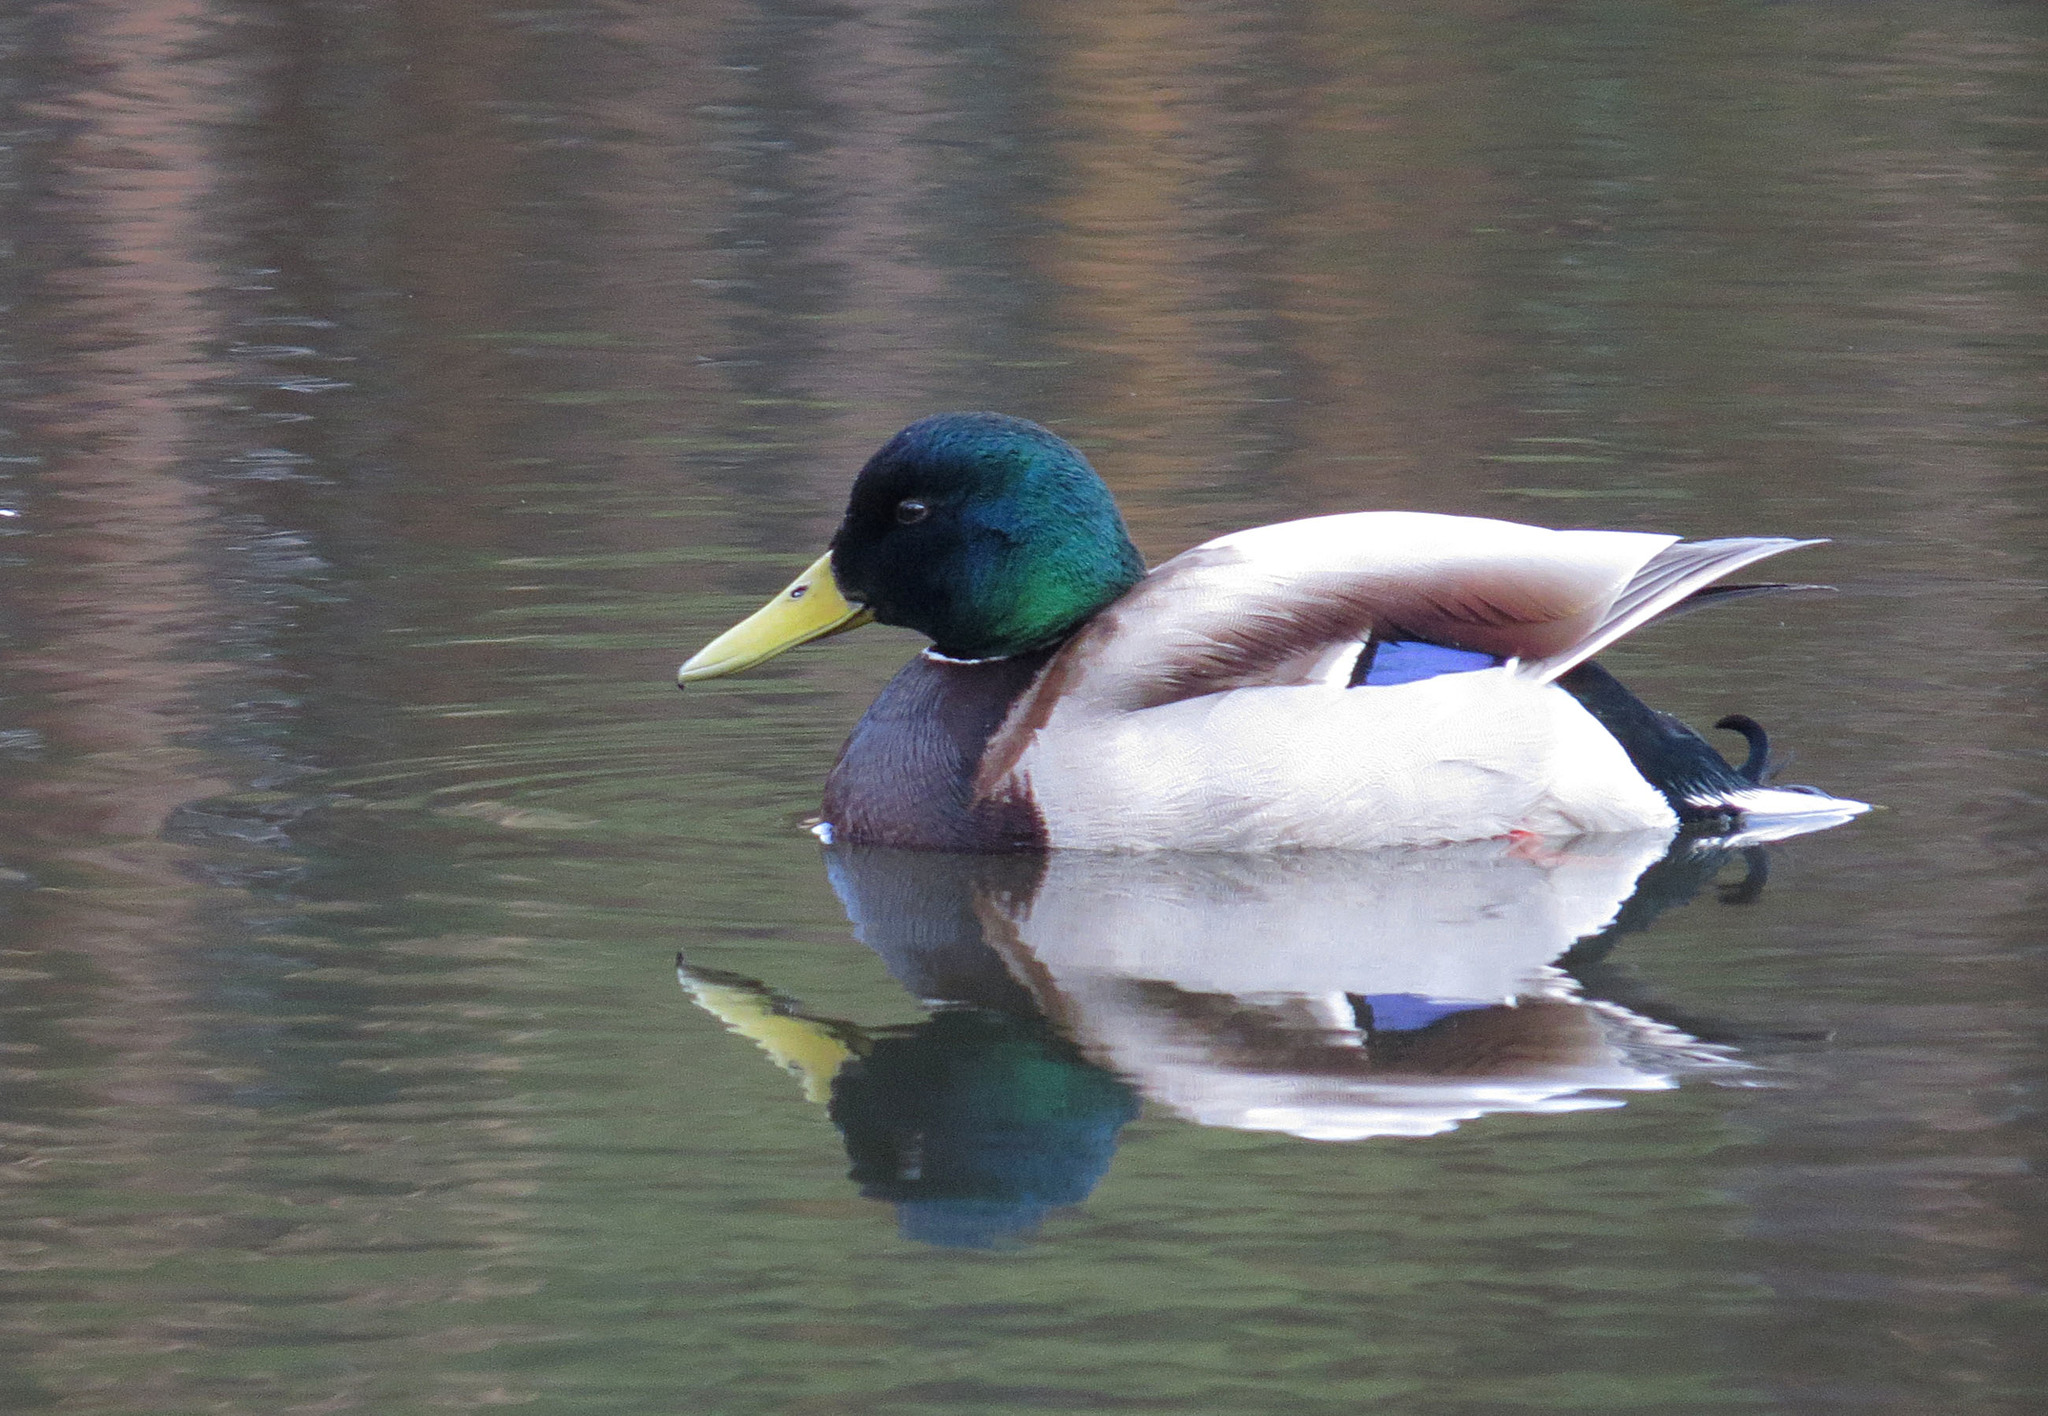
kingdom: Animalia
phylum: Chordata
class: Aves
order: Anseriformes
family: Anatidae
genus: Anas
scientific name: Anas platyrhynchos
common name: Mallard
